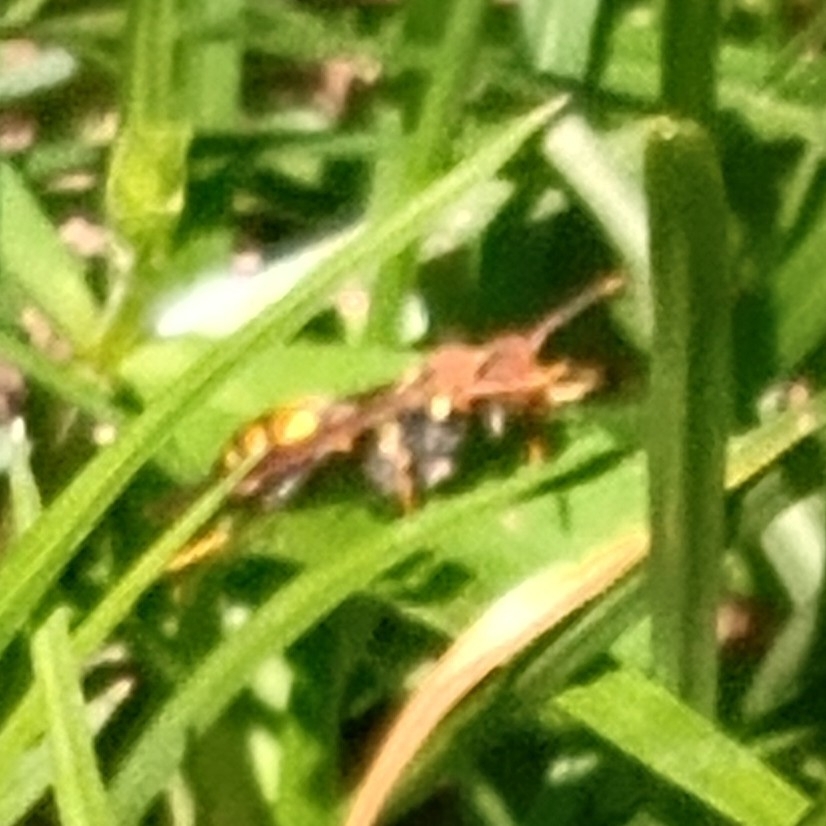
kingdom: Animalia
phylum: Arthropoda
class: Insecta
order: Hymenoptera
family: Eumenidae
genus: Polistes
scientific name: Polistes versicolor
